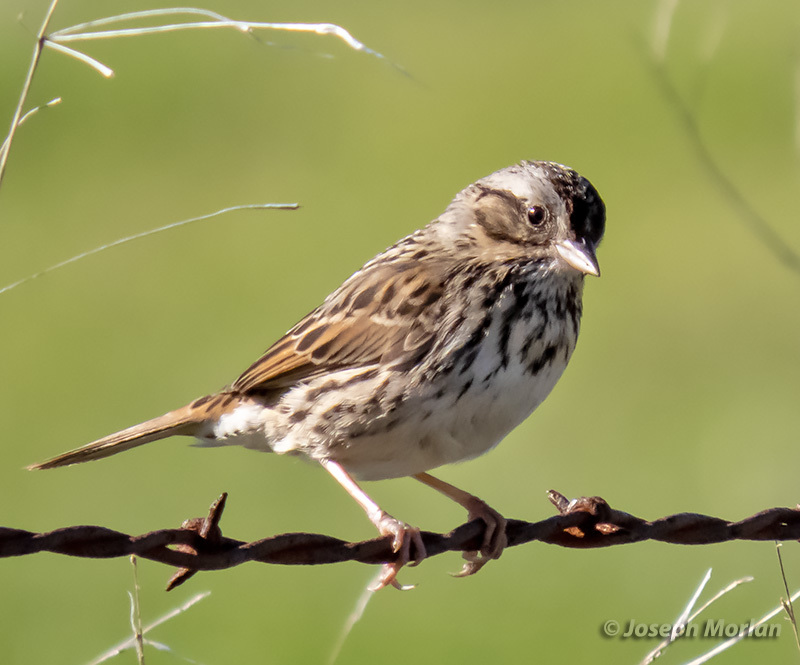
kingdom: Animalia
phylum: Chordata
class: Aves
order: Passeriformes
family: Passerellidae
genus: Melospiza
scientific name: Melospiza melodia
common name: Song sparrow
